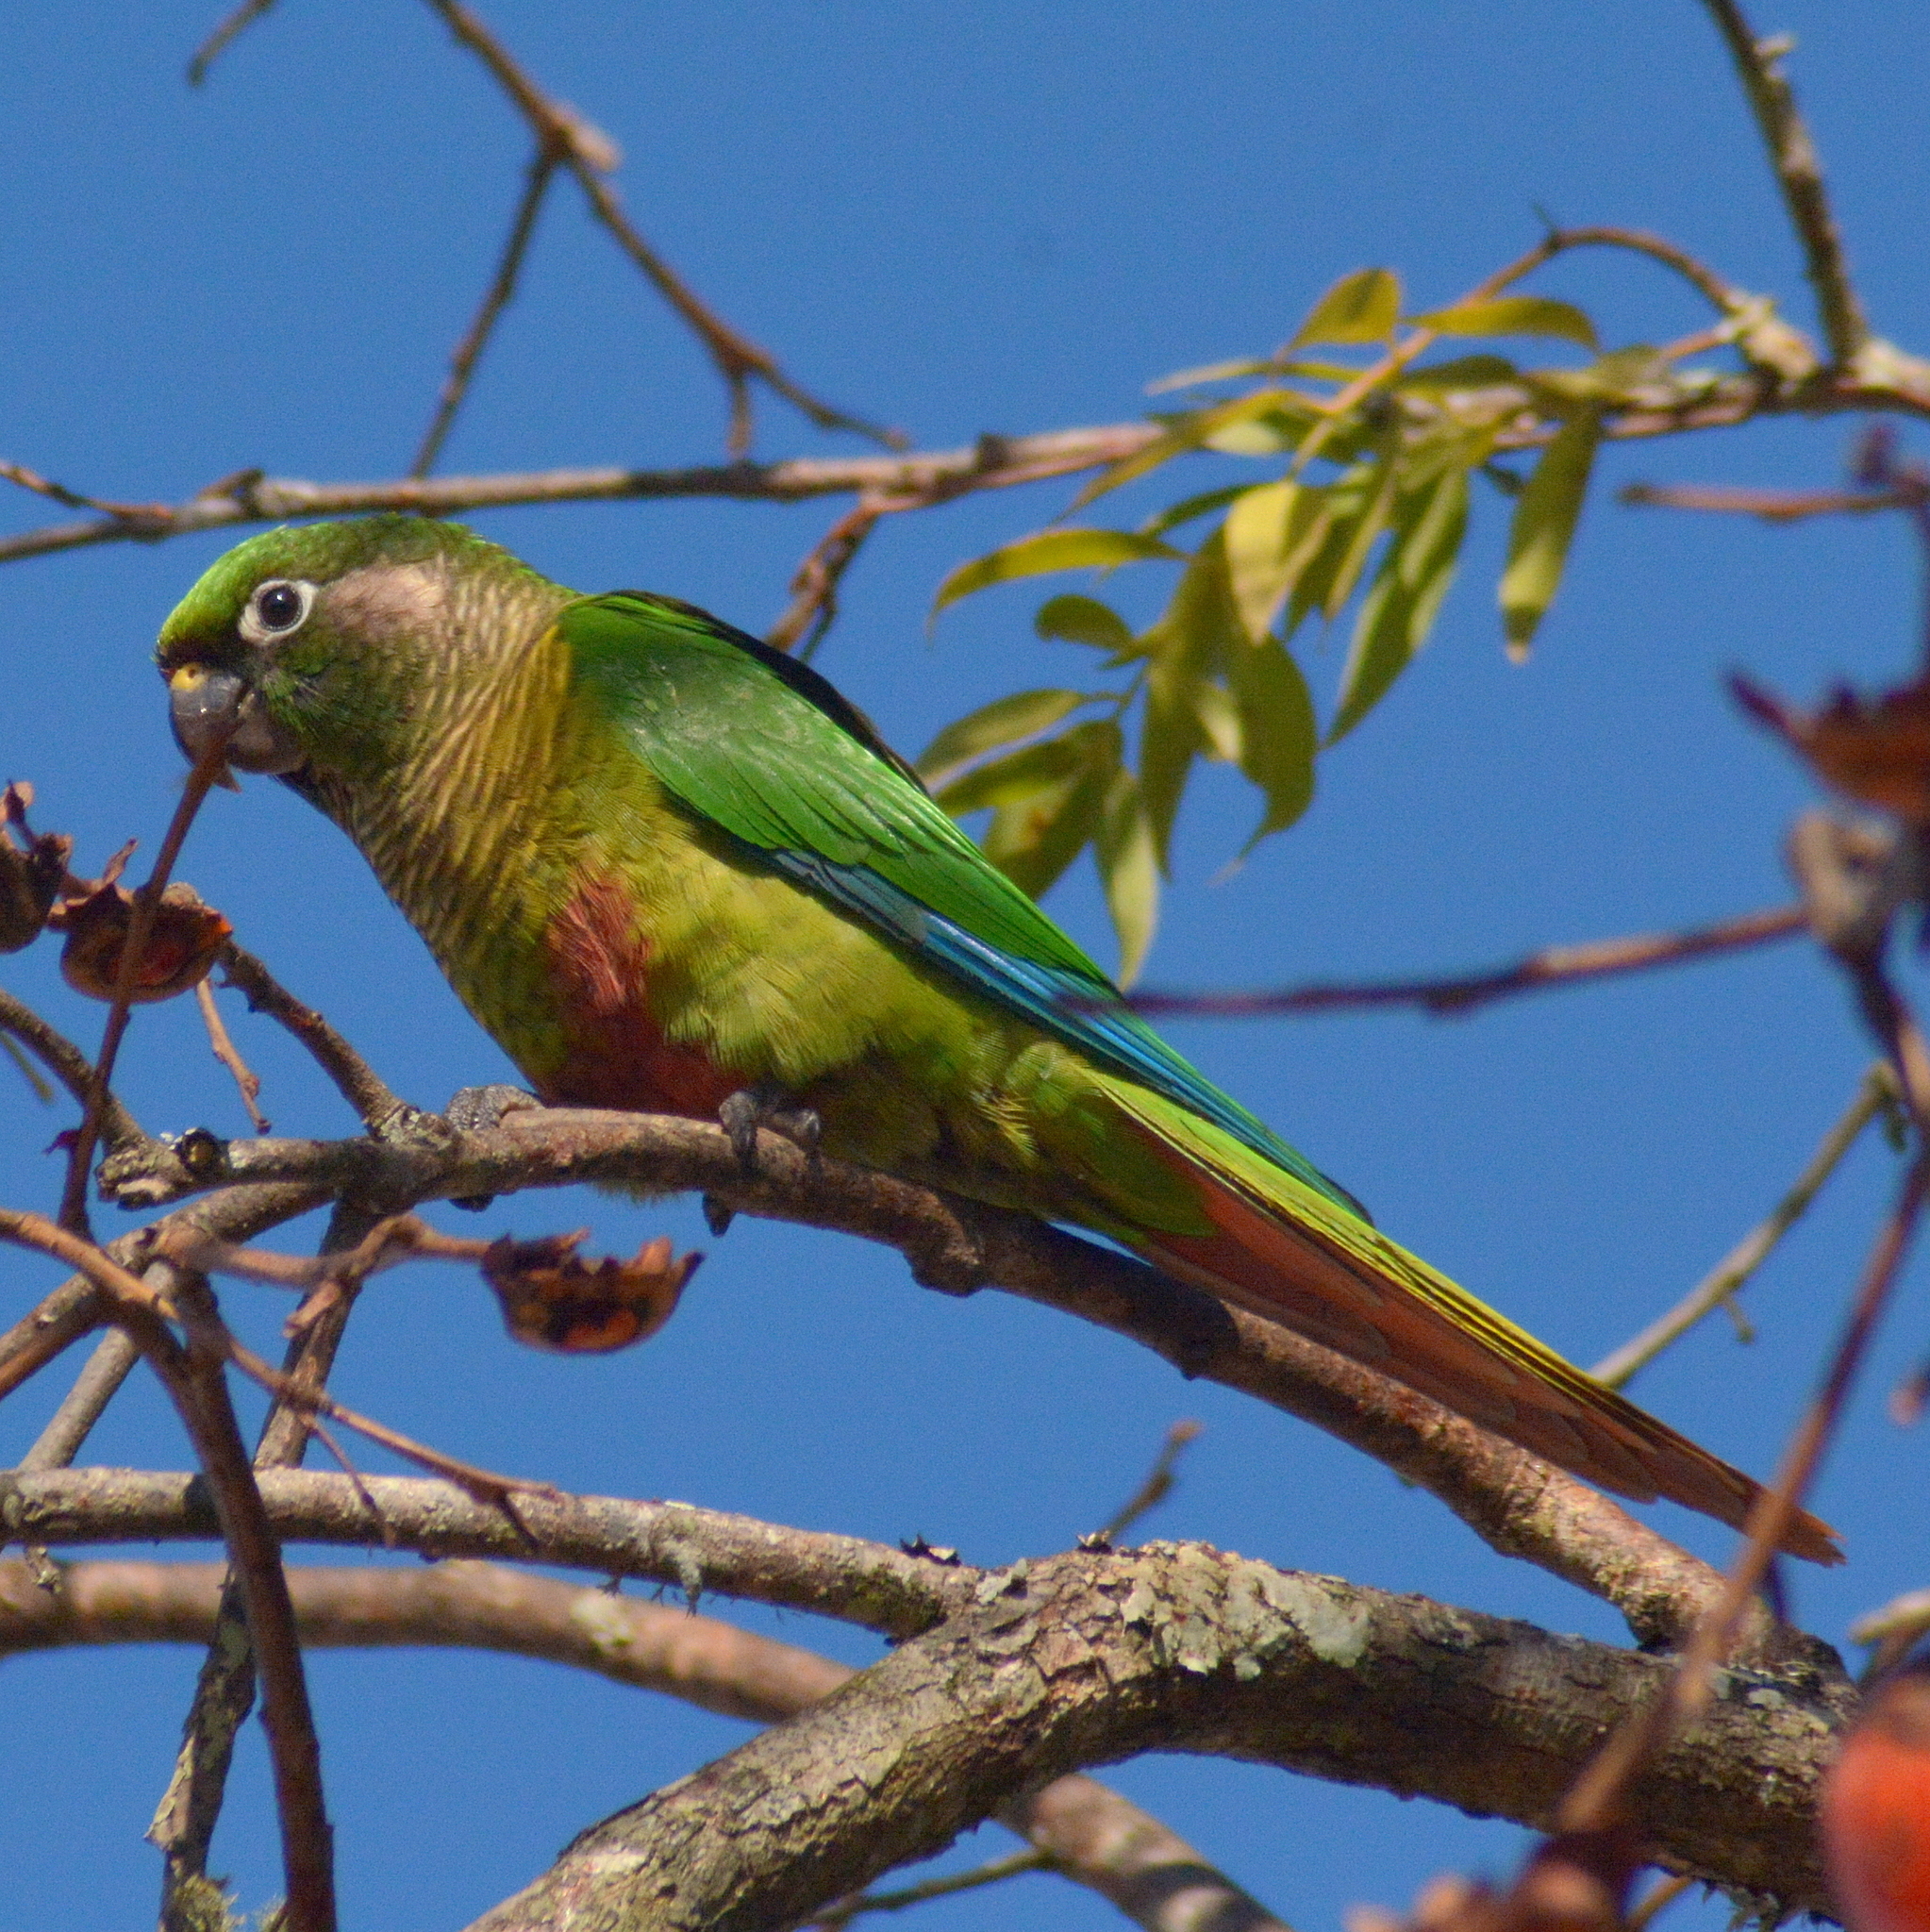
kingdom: Animalia
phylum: Chordata
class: Aves
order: Psittaciformes
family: Psittacidae
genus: Pyrrhura
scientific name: Pyrrhura frontalis
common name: Maroon-bellied parakeet
